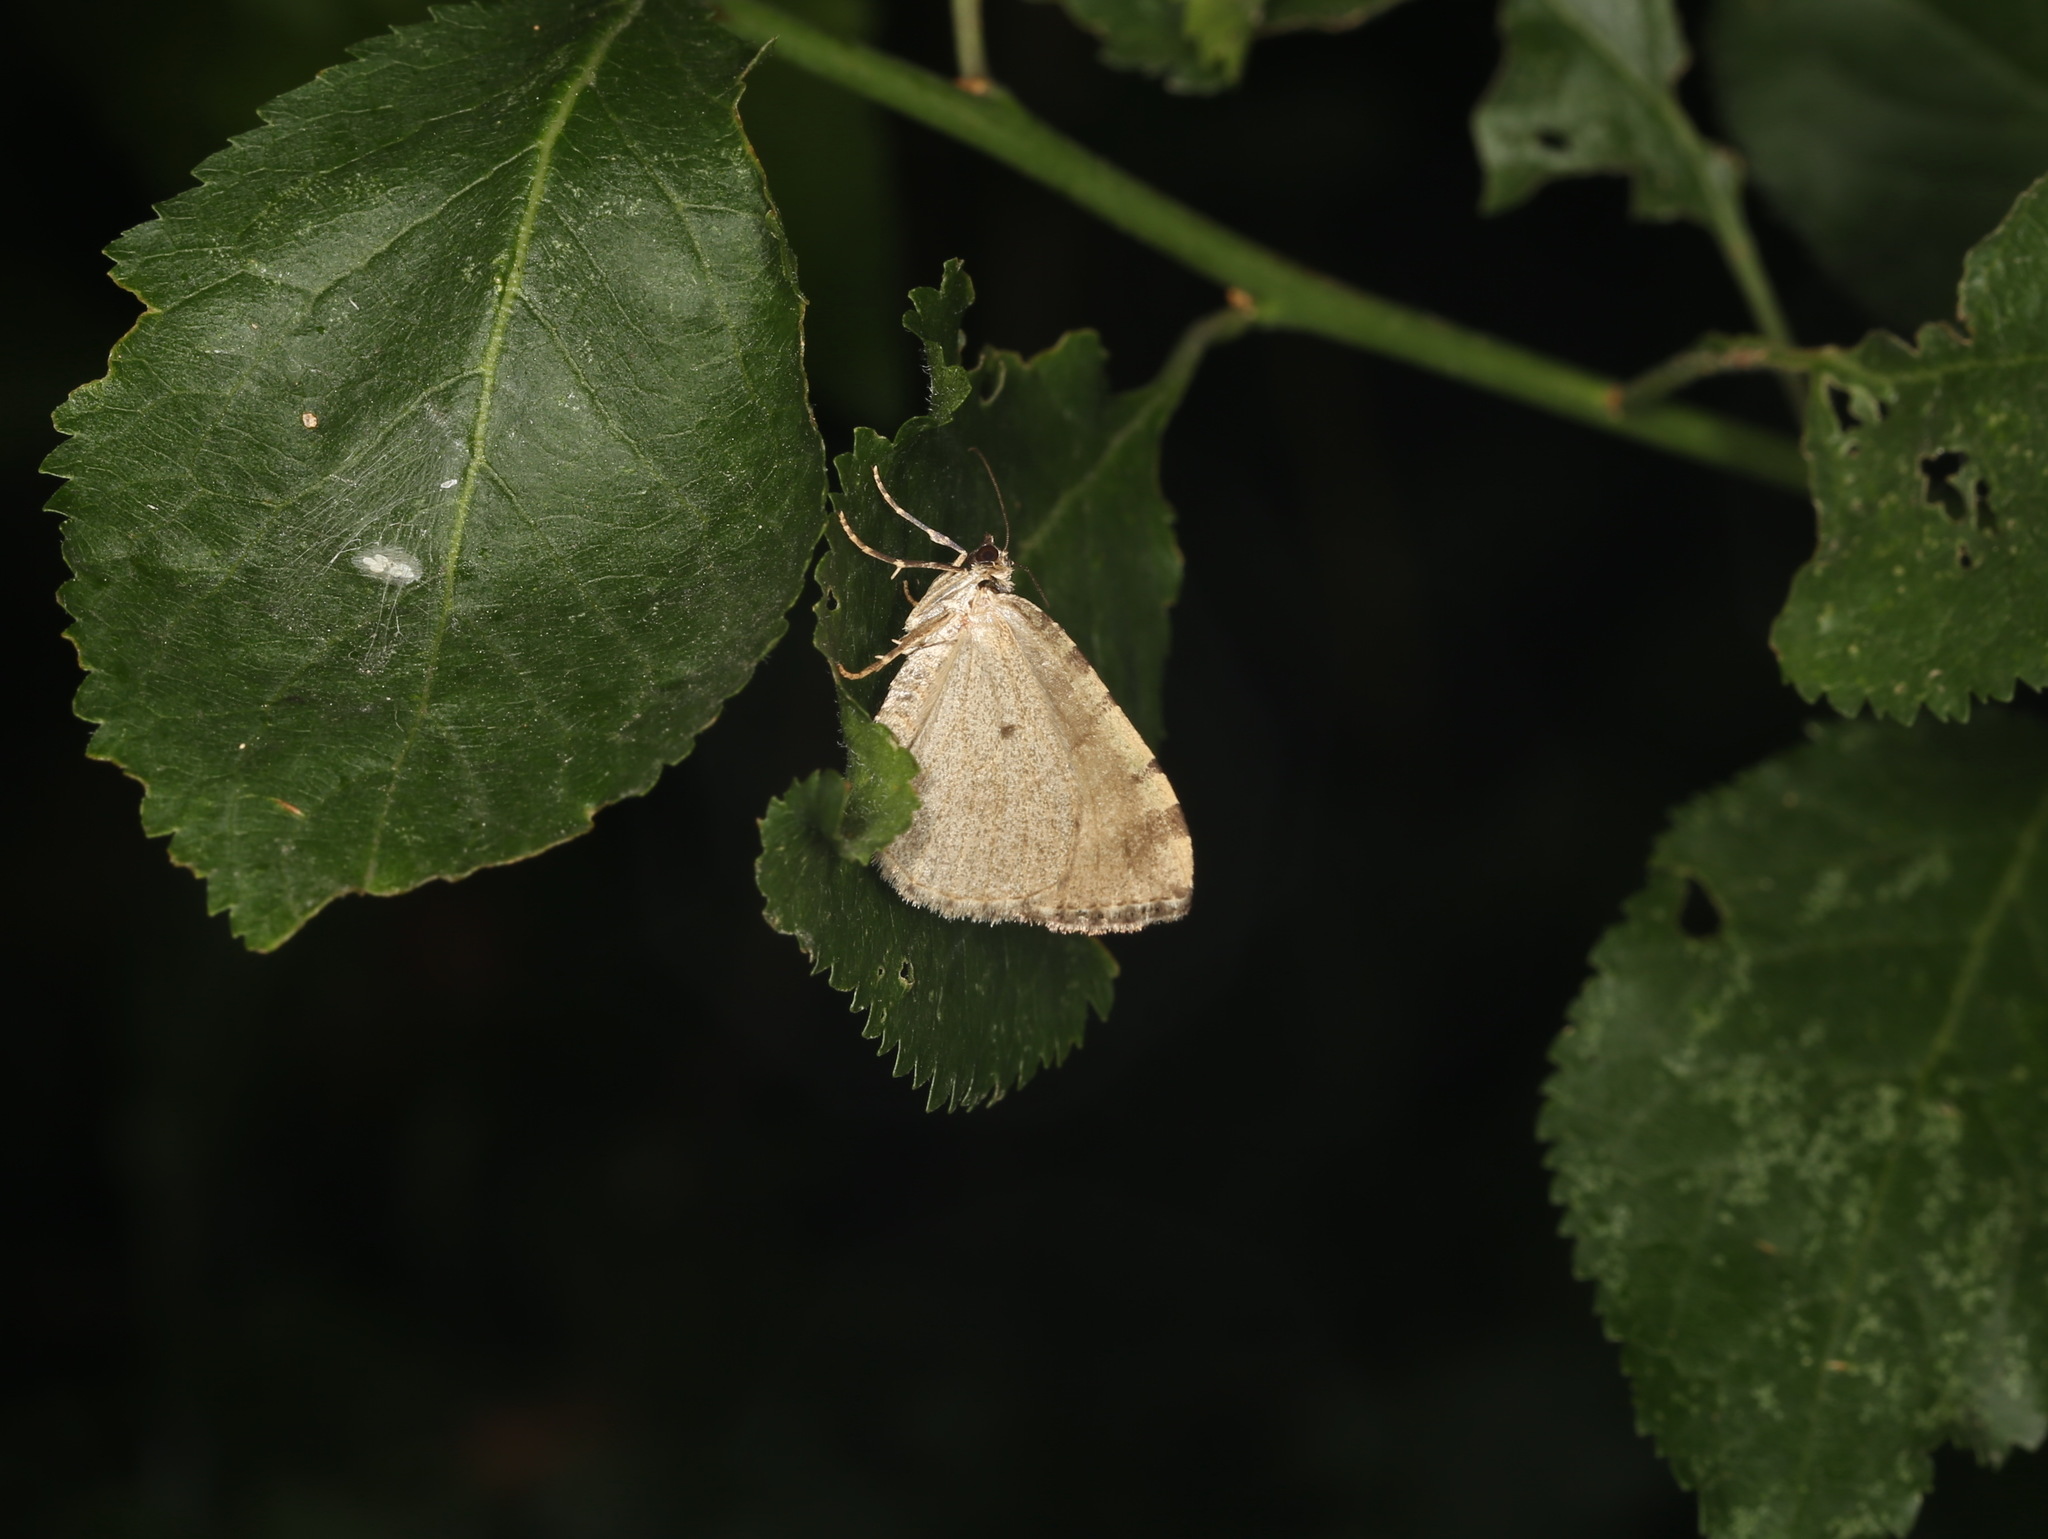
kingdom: Animalia
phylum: Arthropoda
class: Insecta
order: Lepidoptera
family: Geometridae
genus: Hydriomena
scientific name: Hydriomena furcata
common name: July highflyer
